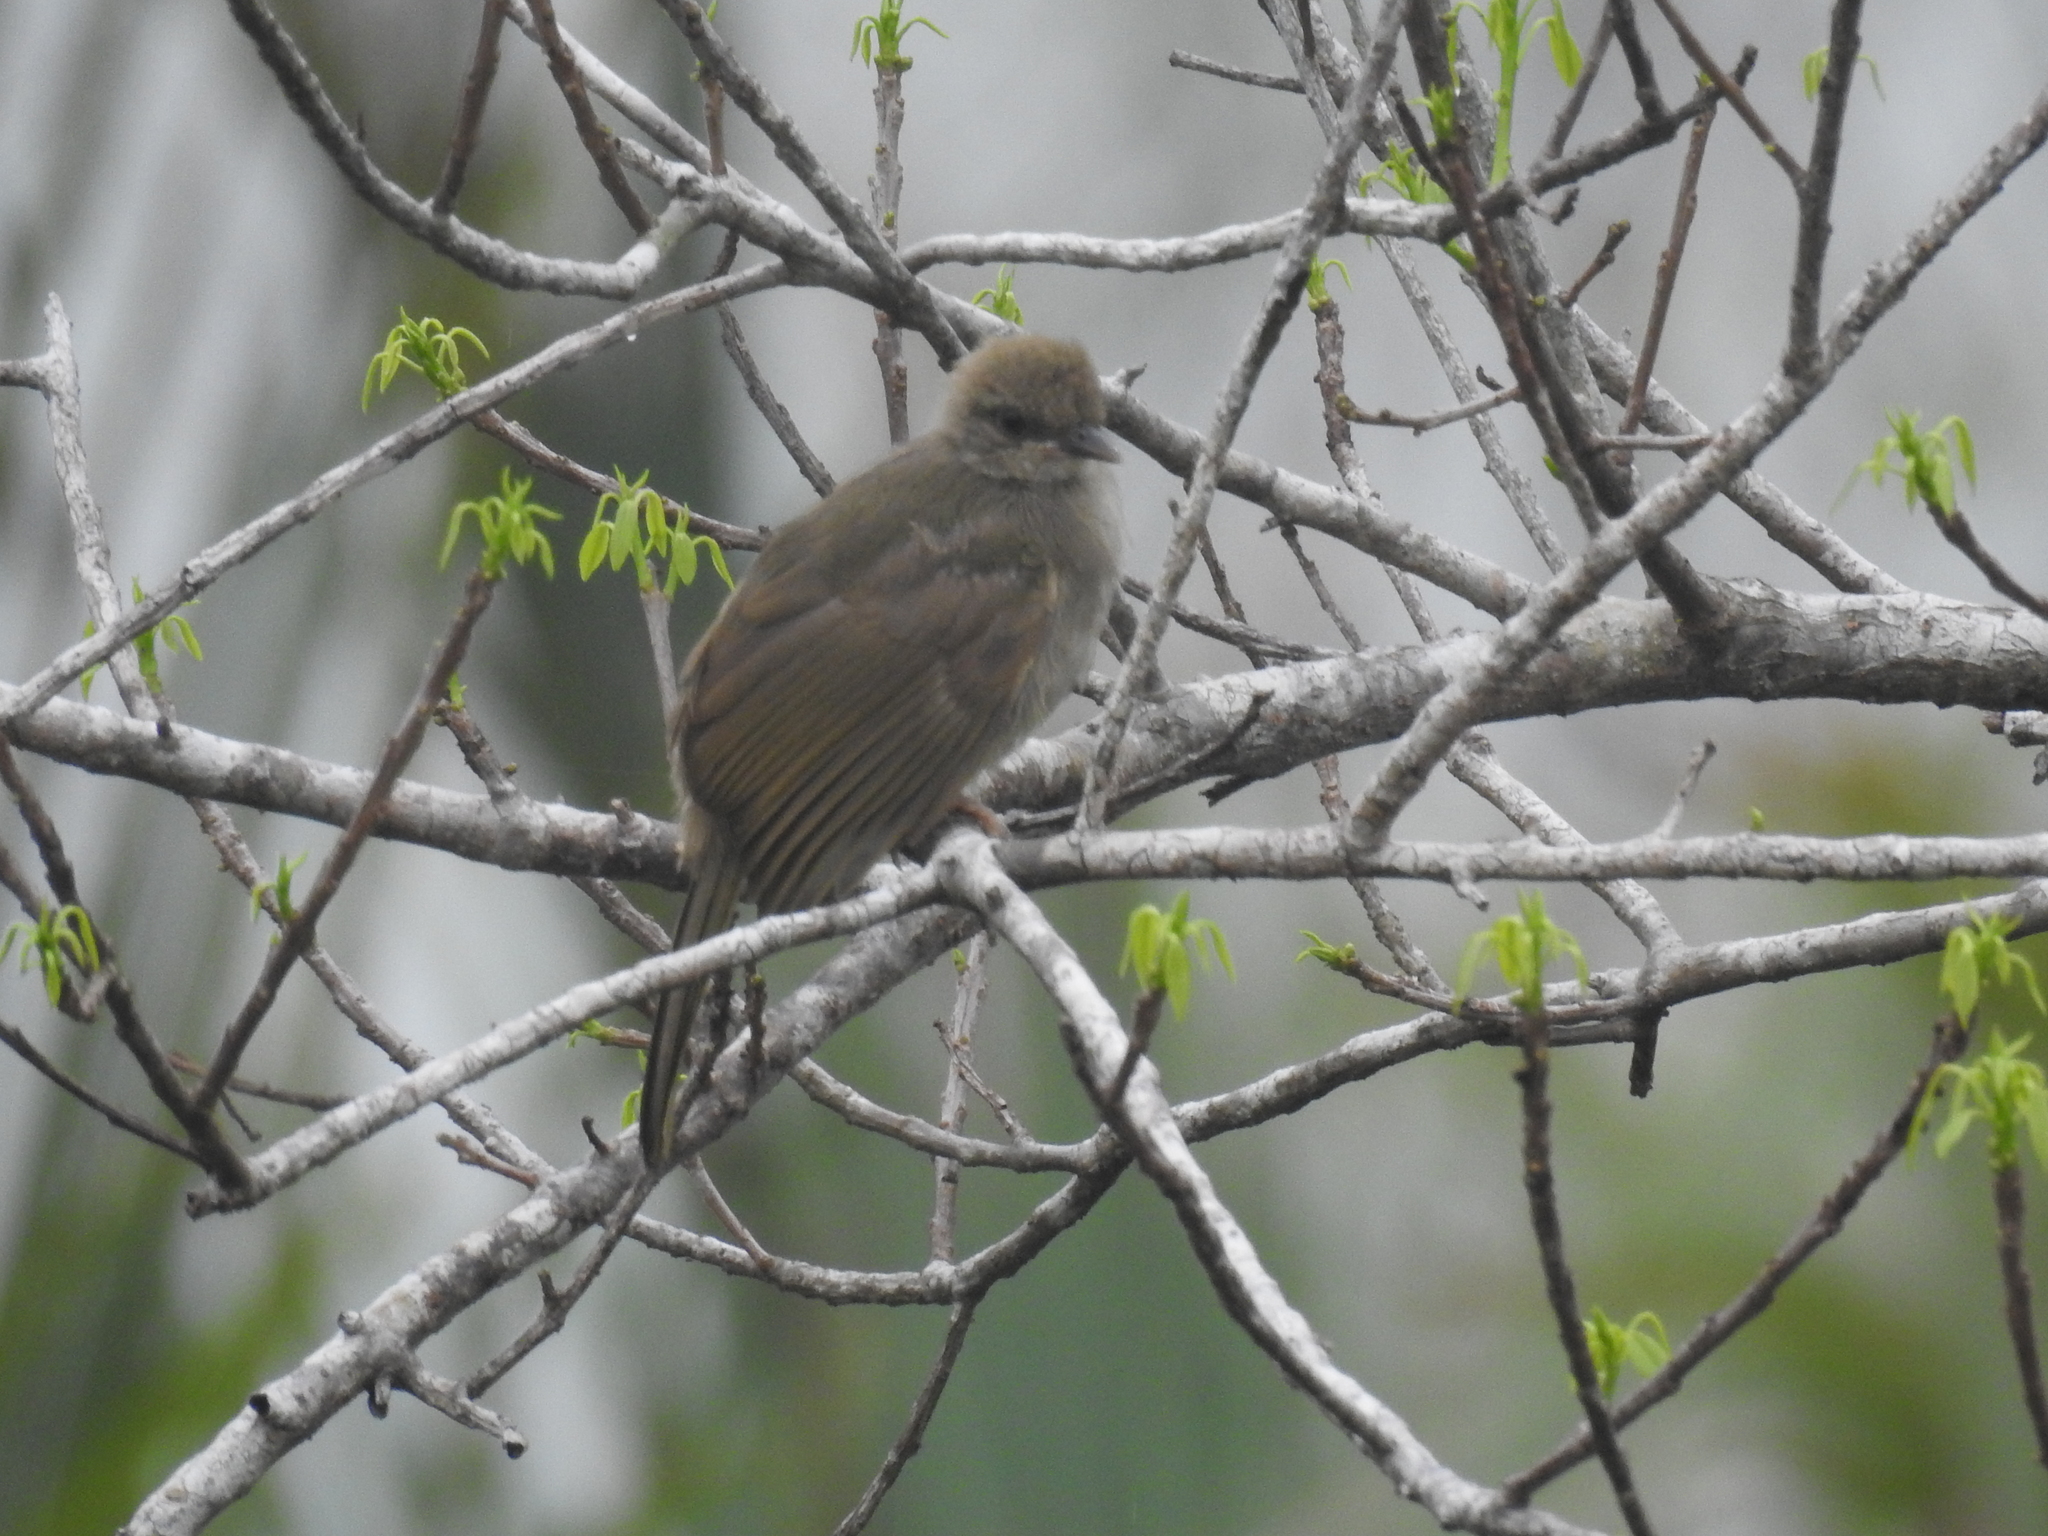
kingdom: Animalia
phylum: Chordata
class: Aves
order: Passeriformes
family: Pycnonotidae
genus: Pycnonotus
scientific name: Pycnonotus plumosus
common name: Olive-winged bulbul
